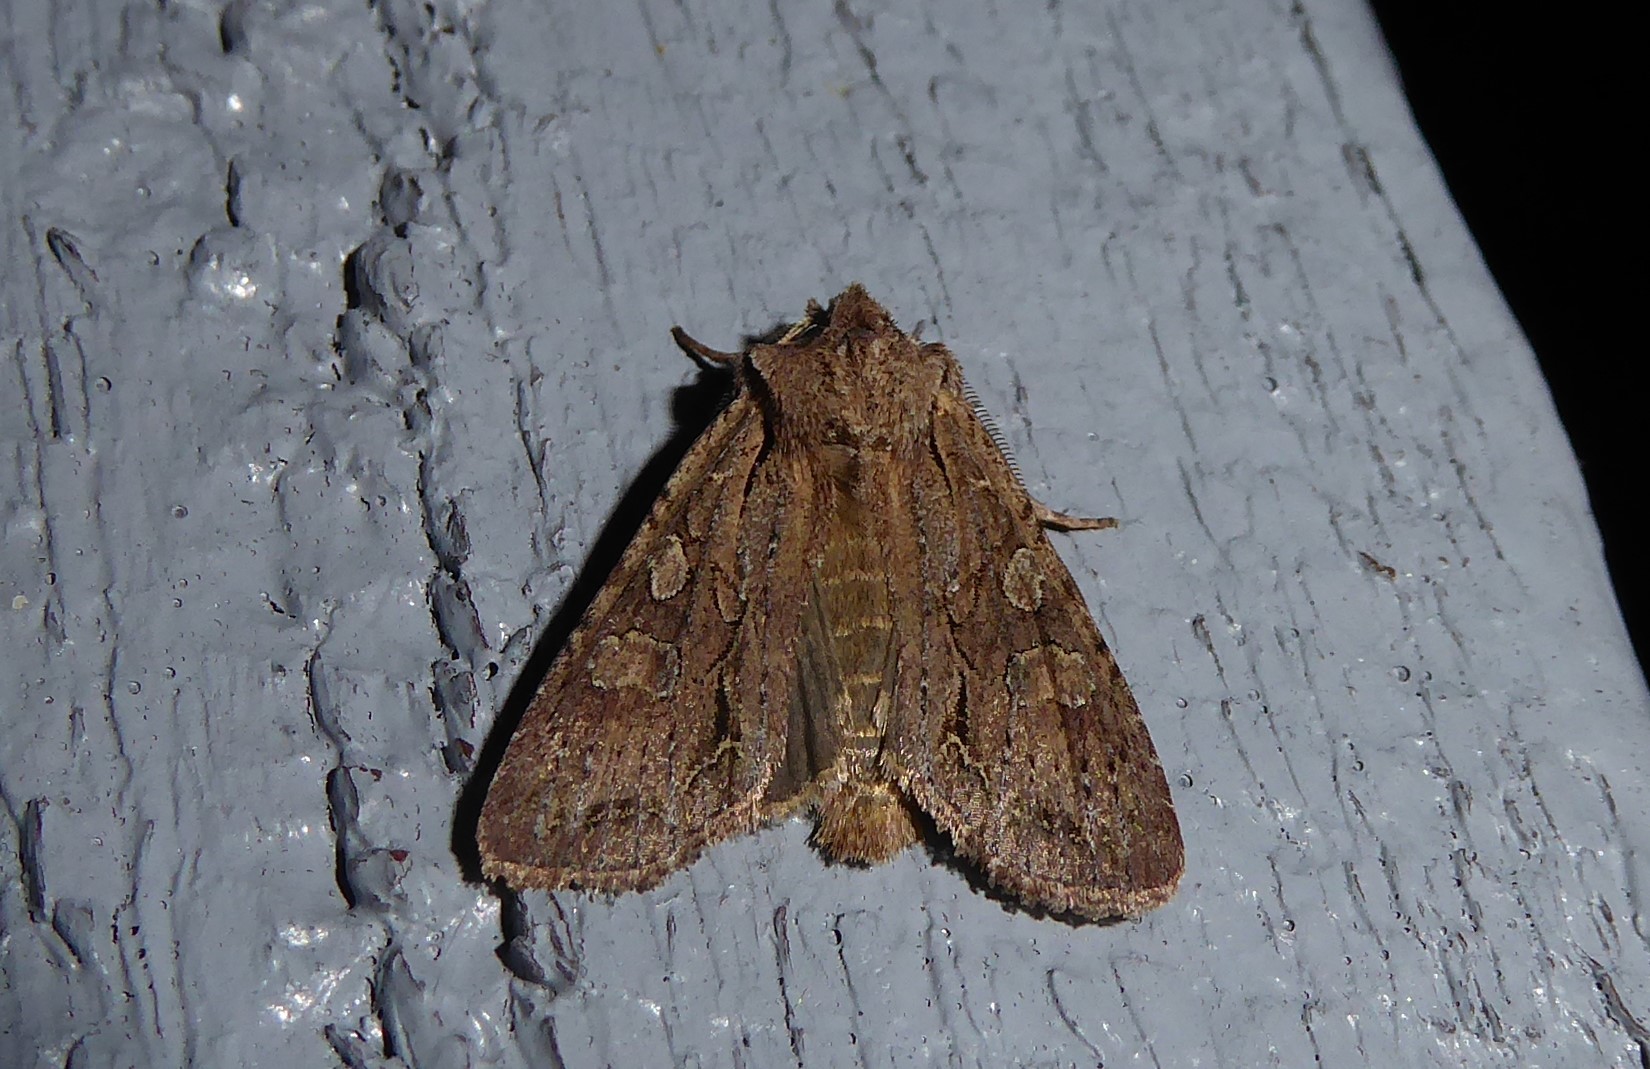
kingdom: Animalia
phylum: Arthropoda
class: Insecta
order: Lepidoptera
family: Noctuidae
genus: Ichneutica
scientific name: Ichneutica
